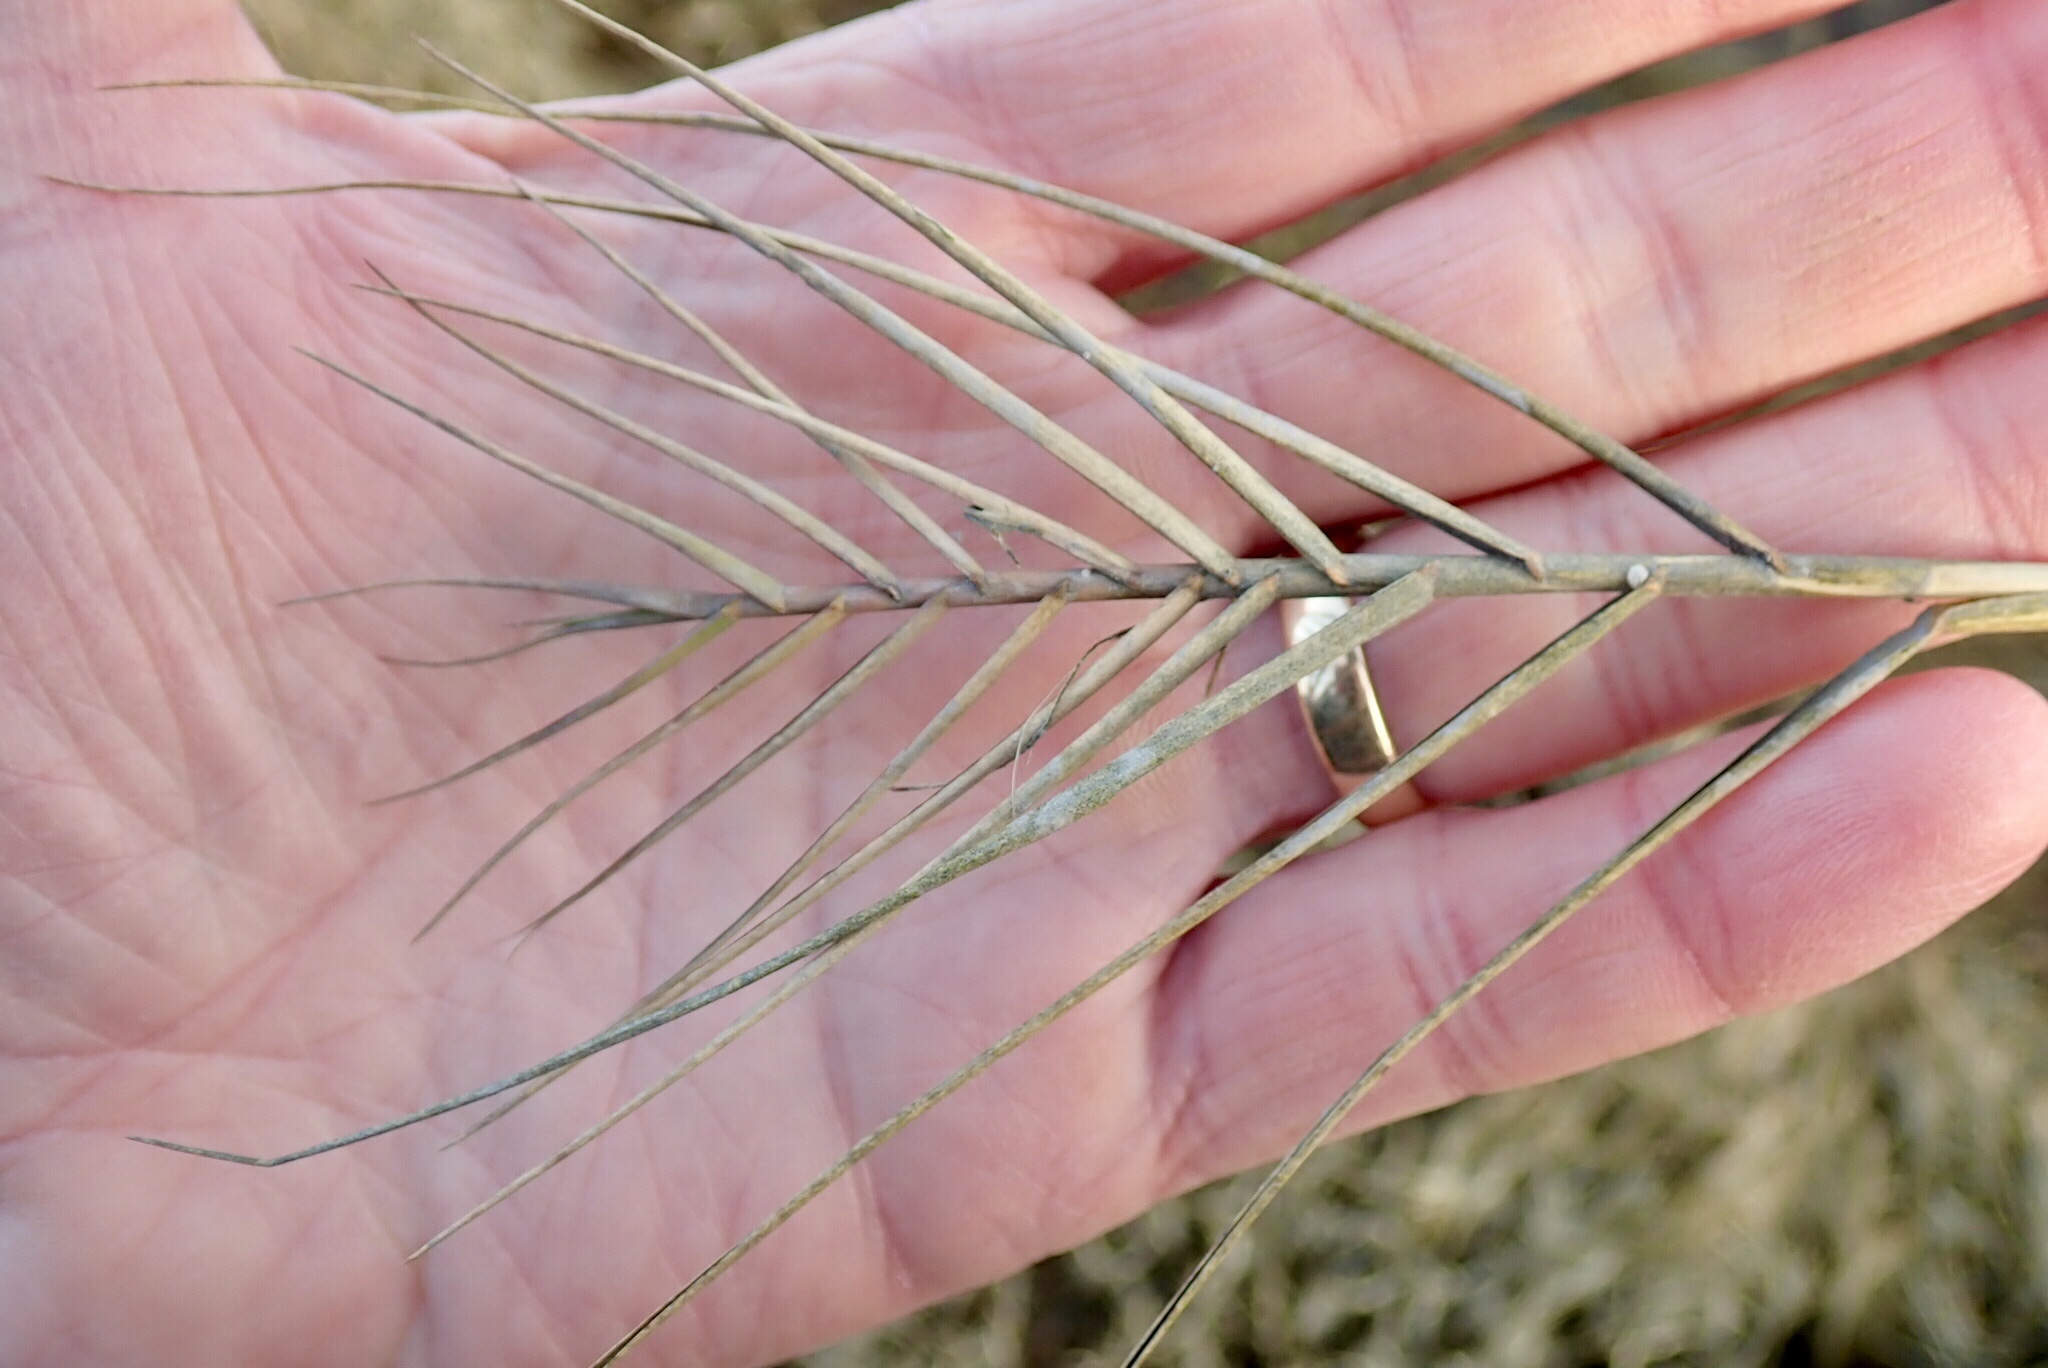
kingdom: Plantae
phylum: Tracheophyta
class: Liliopsida
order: Poales
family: Poaceae
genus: Distichlis
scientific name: Distichlis spicata
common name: Saltgrass
